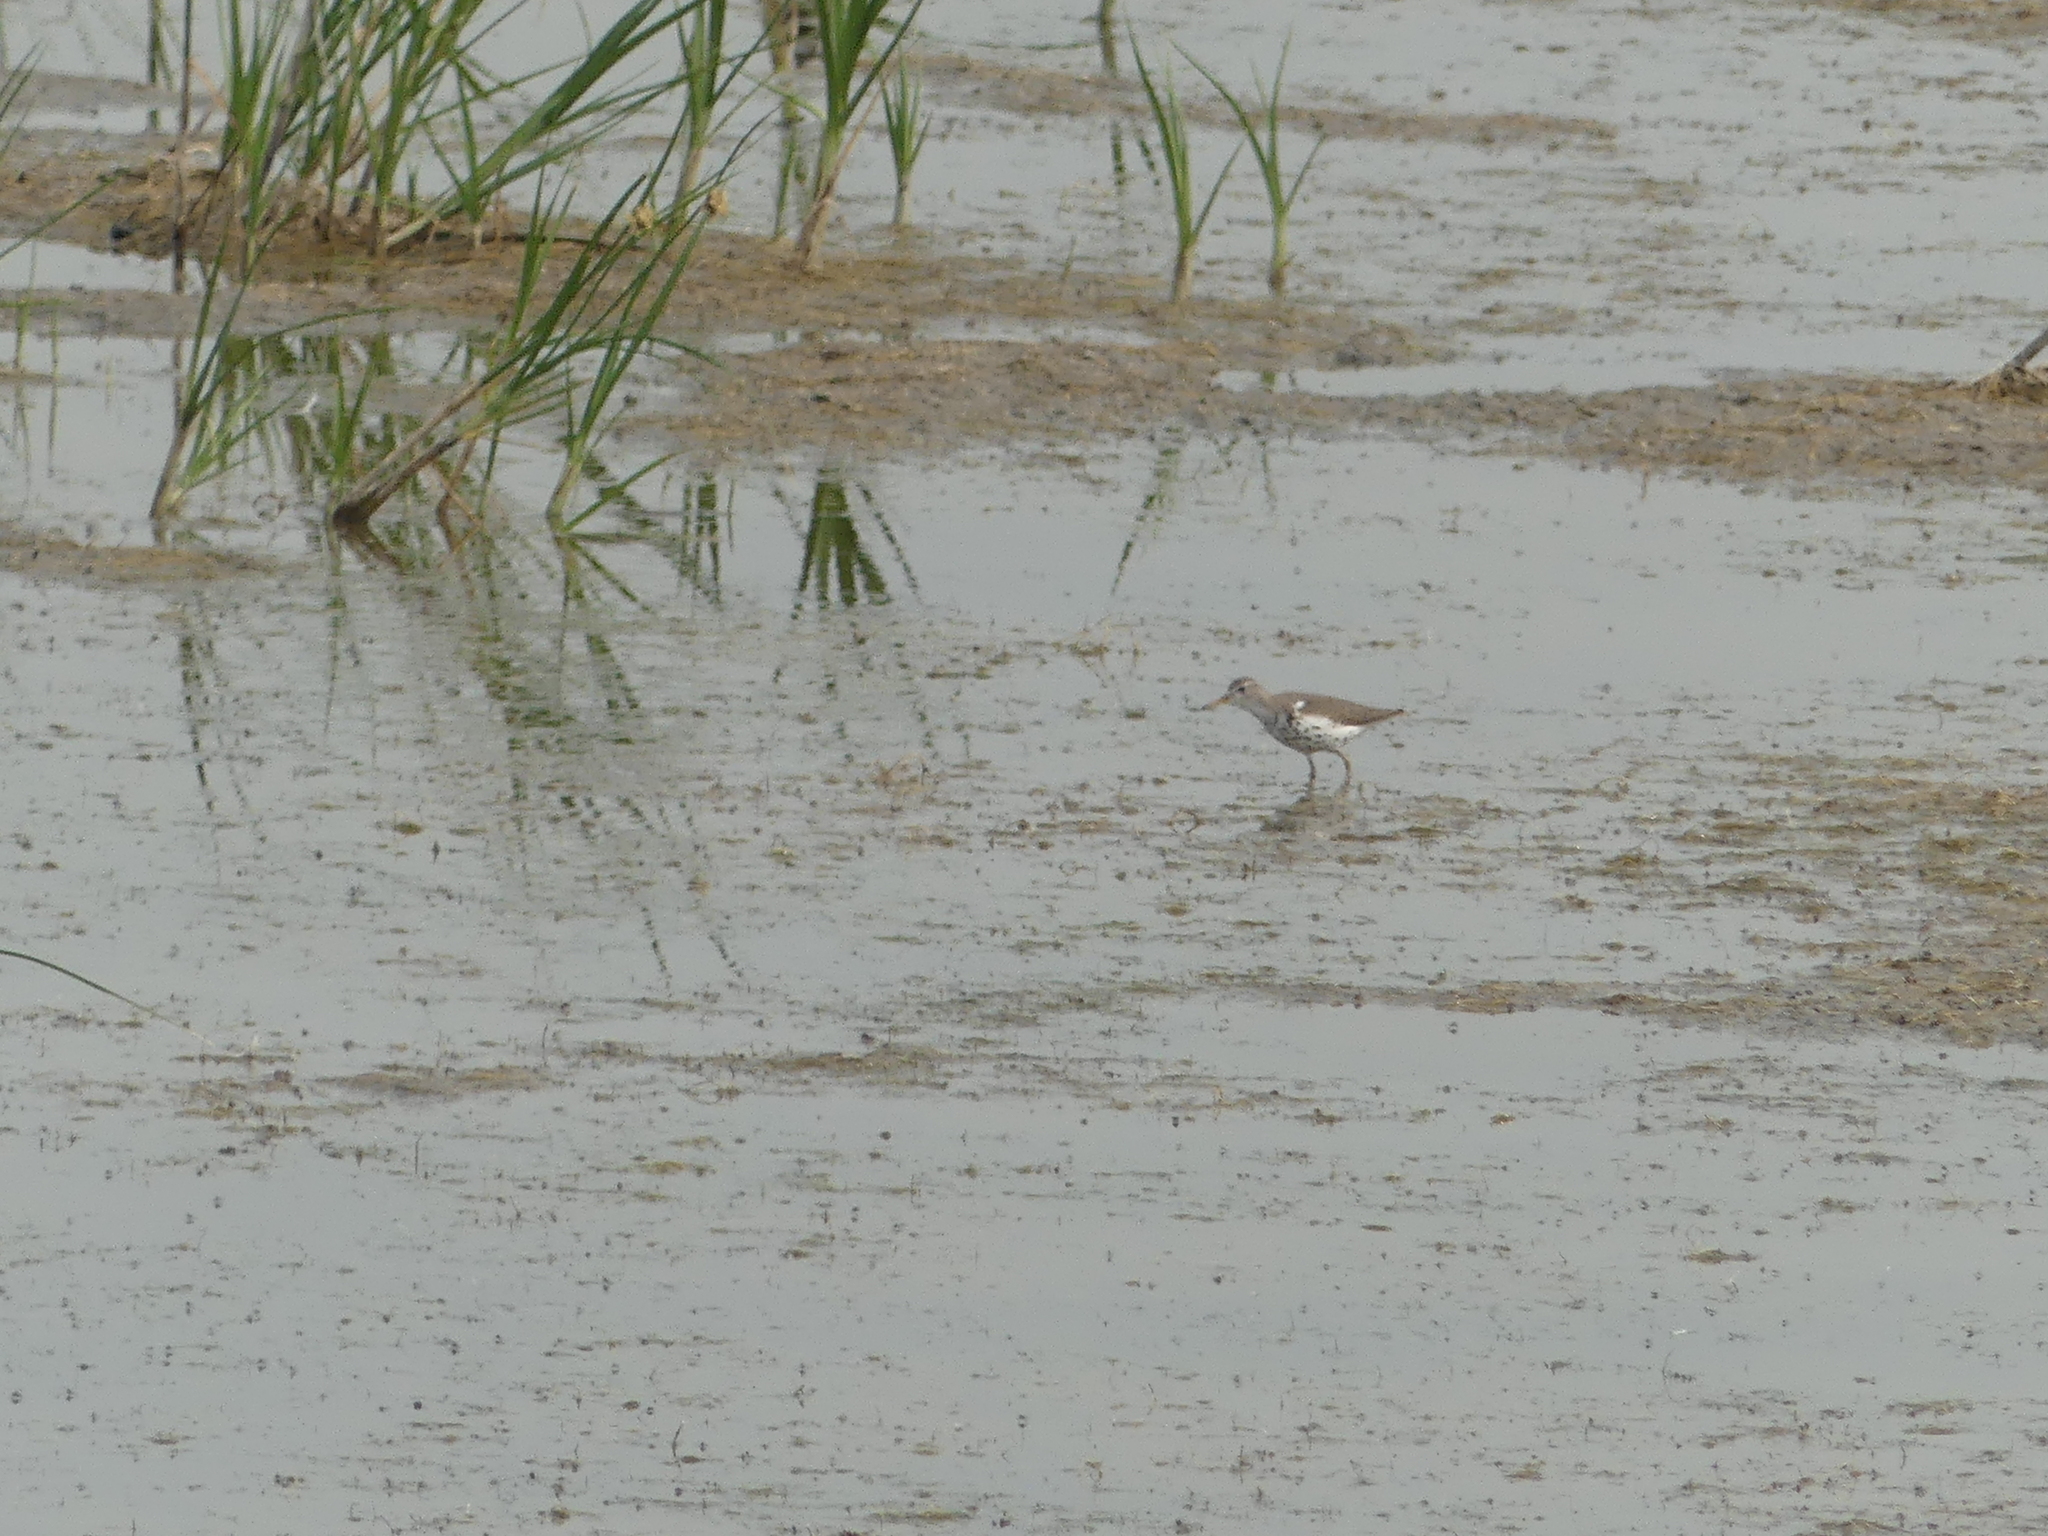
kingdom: Animalia
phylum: Chordata
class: Aves
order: Charadriiformes
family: Scolopacidae
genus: Actitis
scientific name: Actitis macularius
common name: Spotted sandpiper
